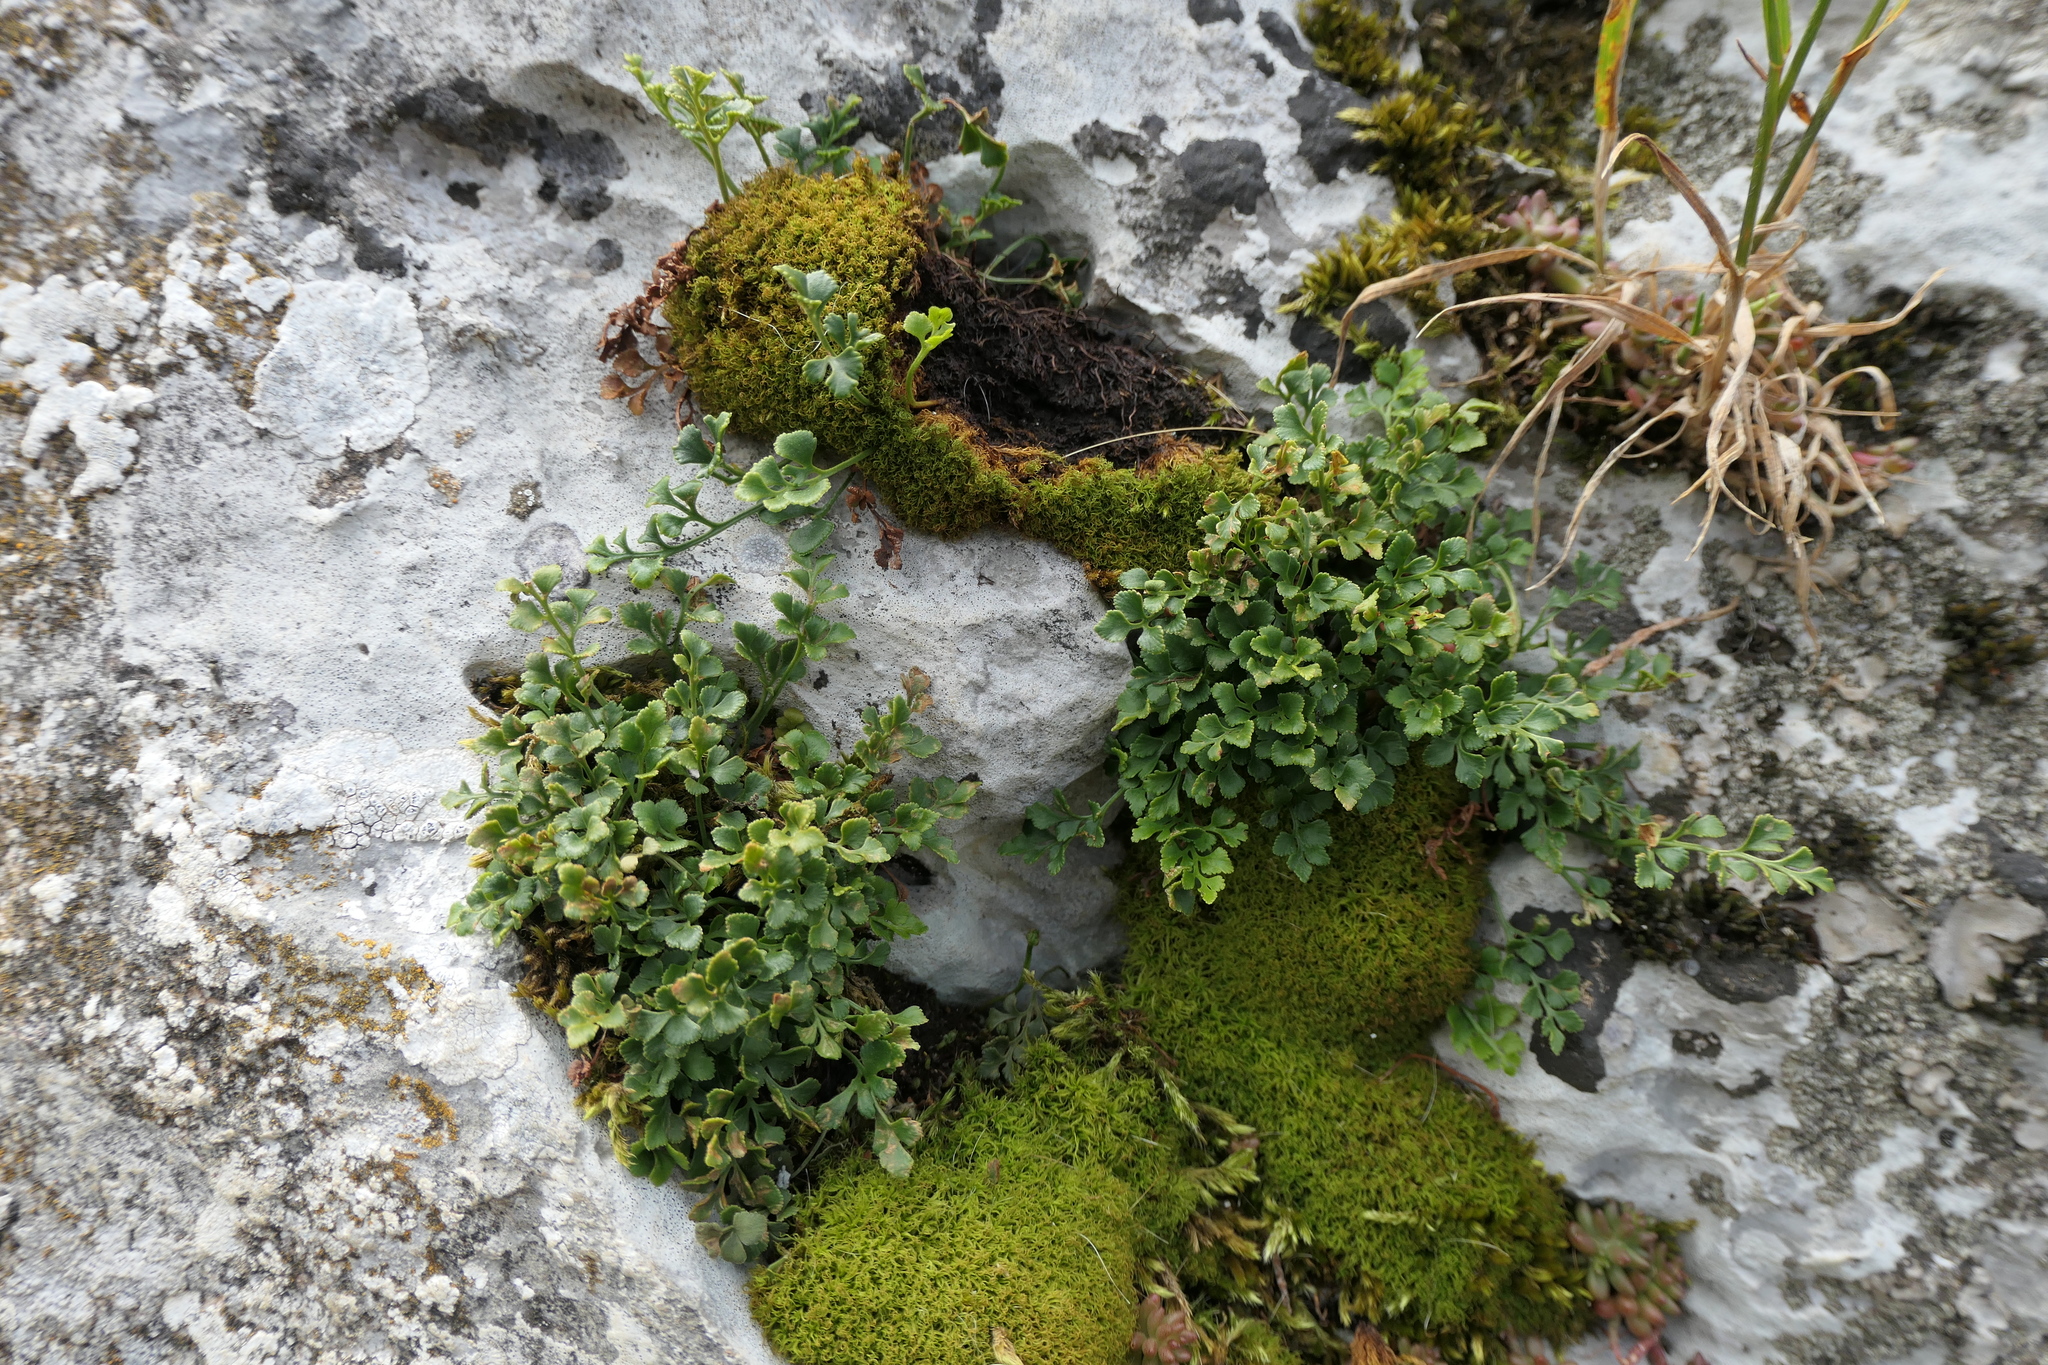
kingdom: Plantae
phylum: Tracheophyta
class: Polypodiopsida
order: Polypodiales
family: Aspleniaceae
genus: Asplenium
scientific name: Asplenium ruta-muraria
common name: Wall-rue
